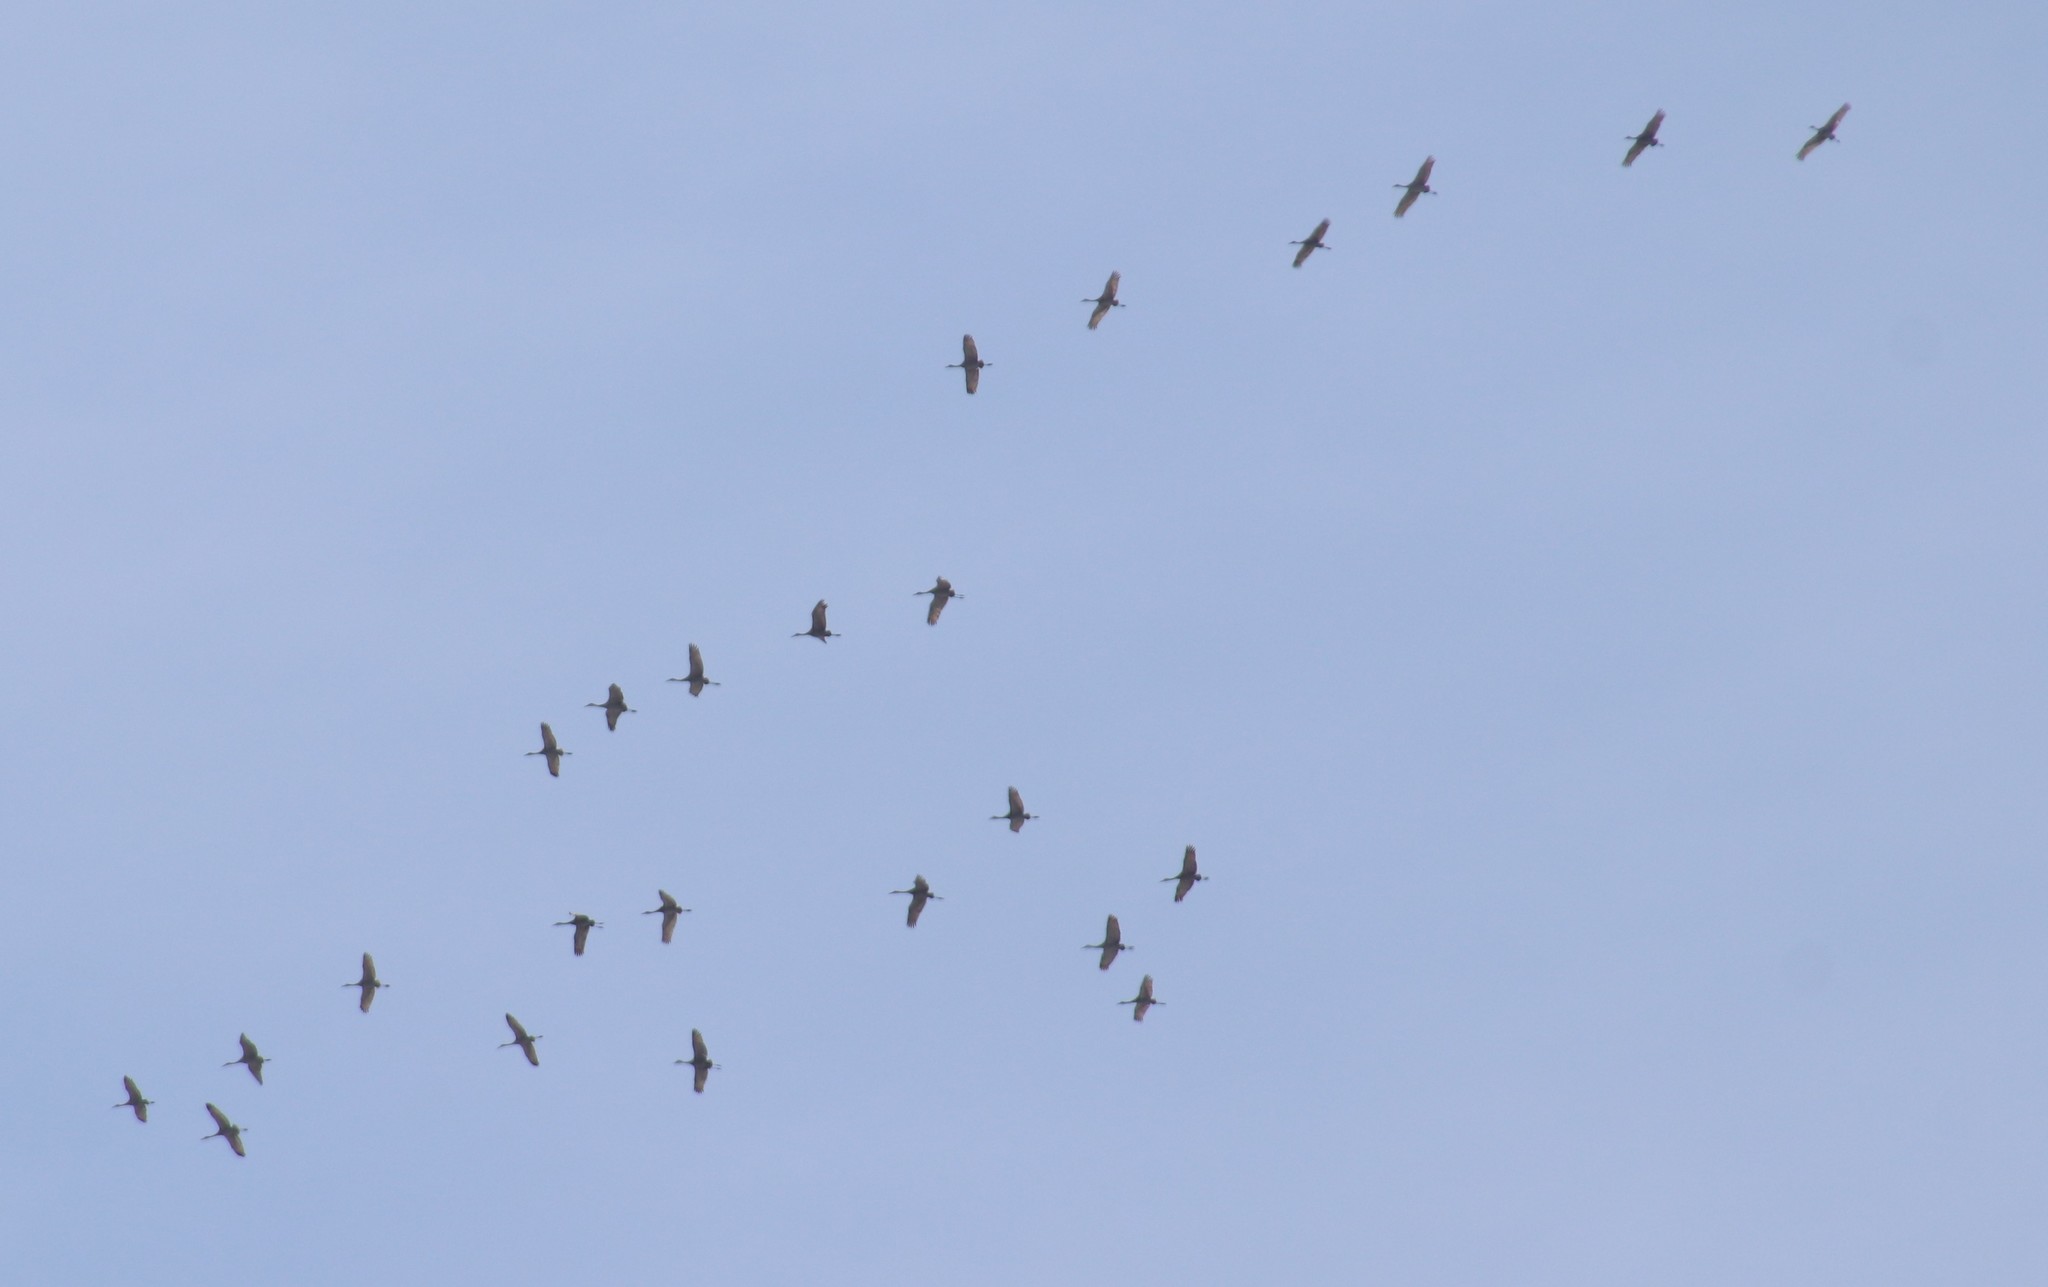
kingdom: Animalia
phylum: Chordata
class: Aves
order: Gruiformes
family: Gruidae
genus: Grus
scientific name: Grus canadensis
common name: Sandhill crane
